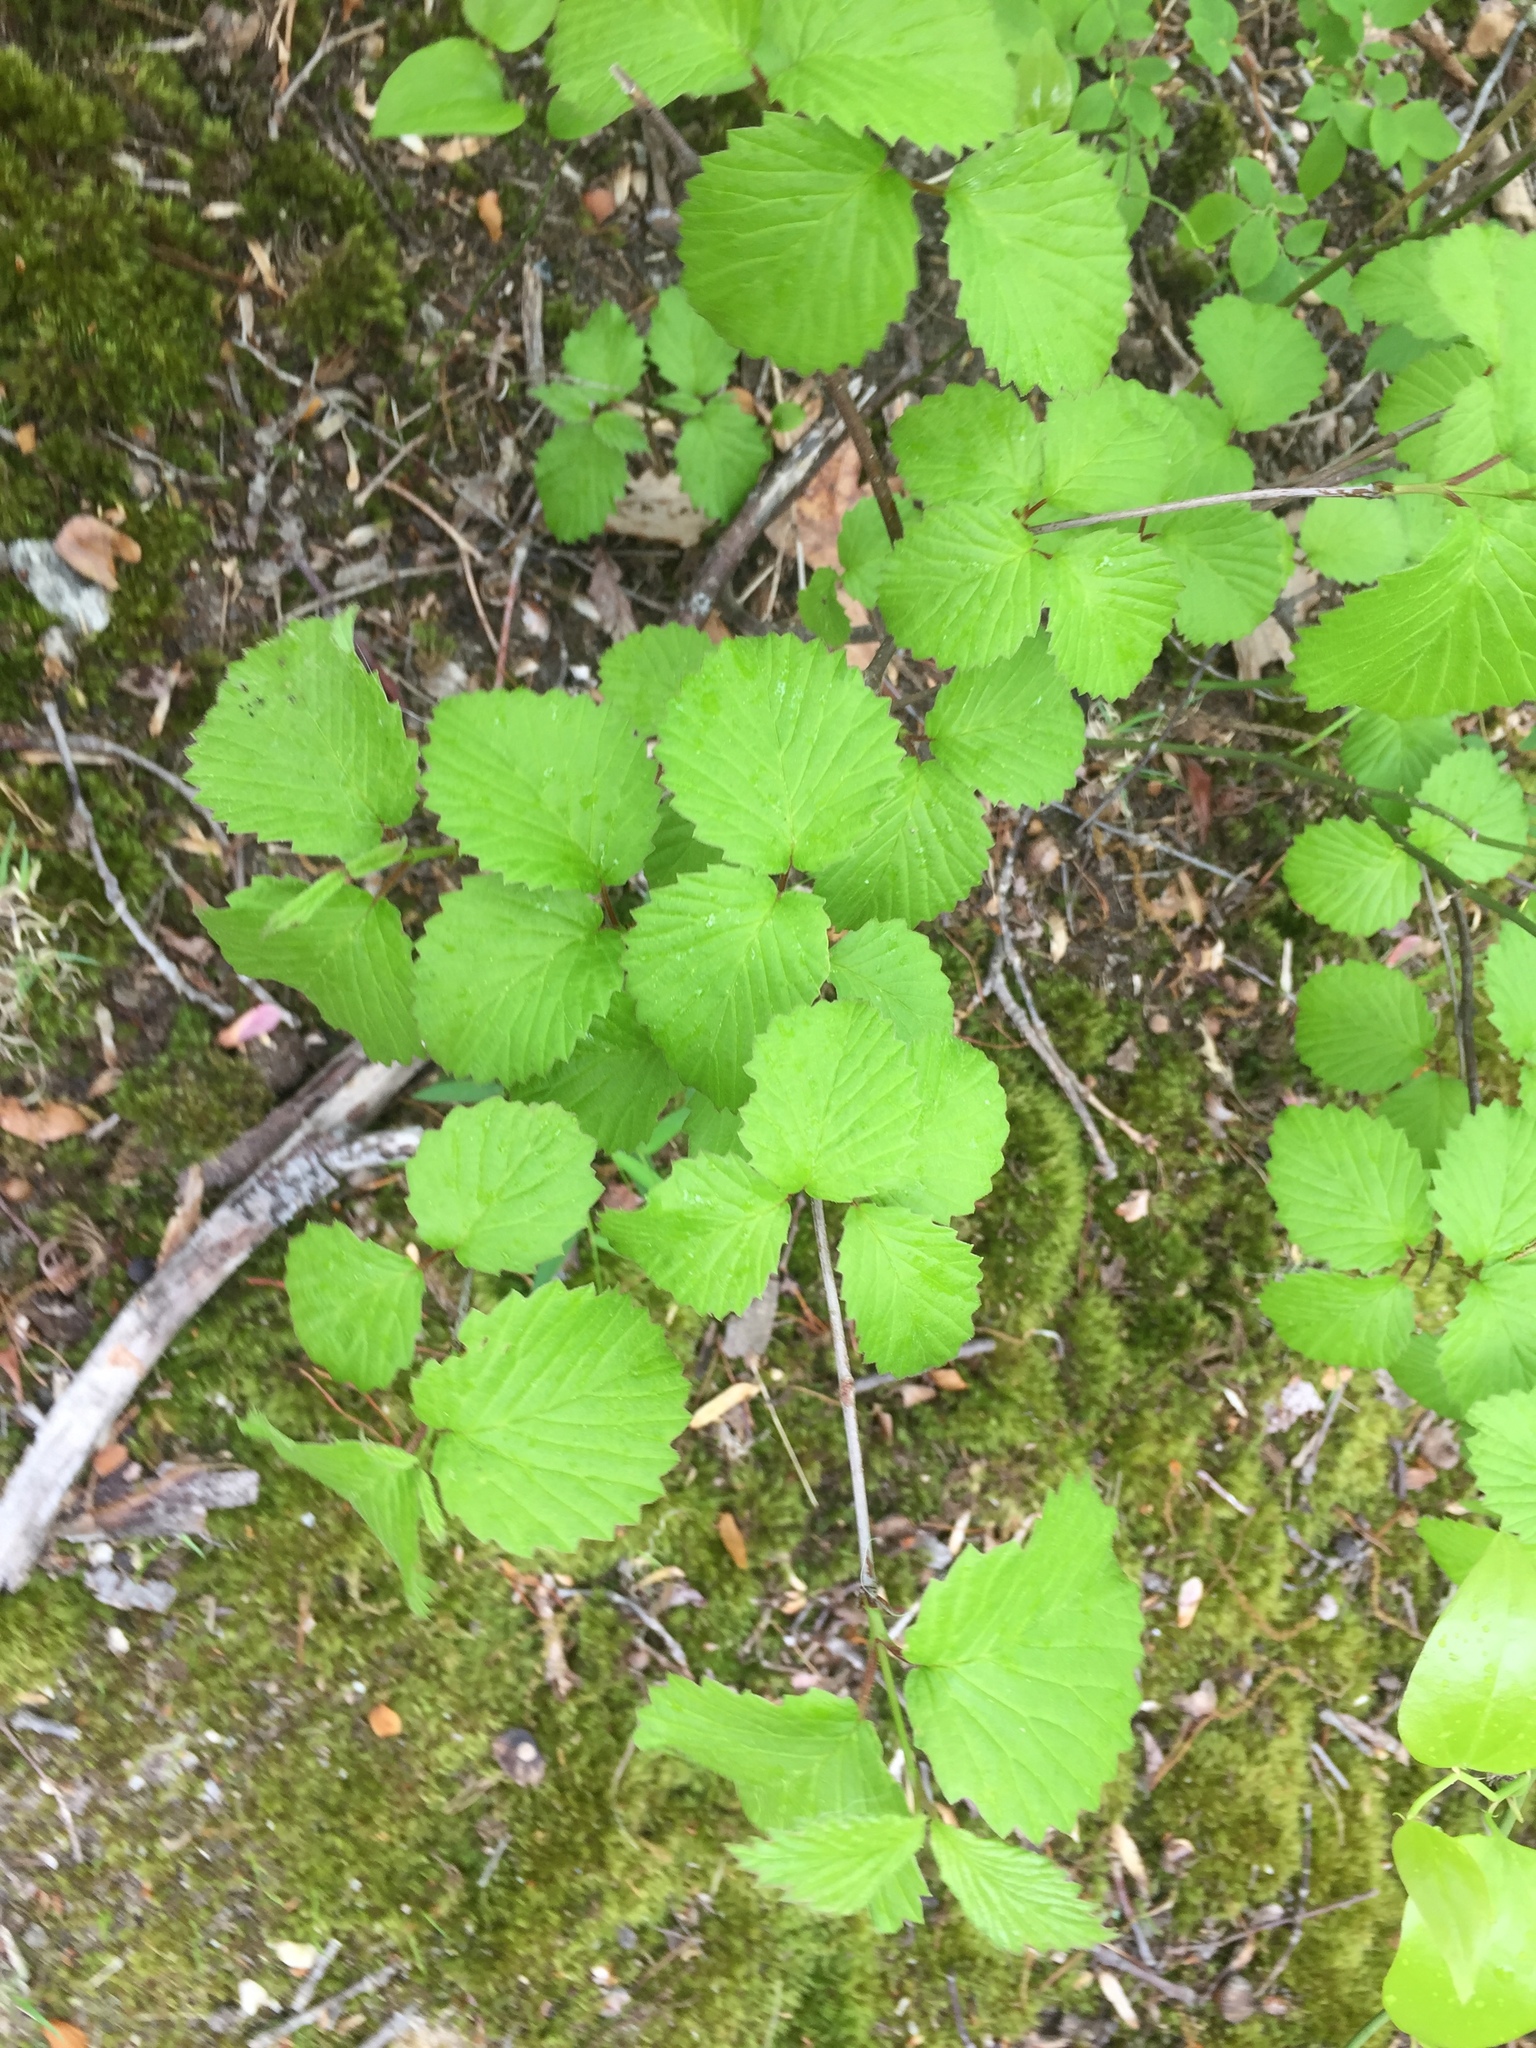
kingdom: Plantae
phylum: Tracheophyta
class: Magnoliopsida
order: Dipsacales
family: Viburnaceae
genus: Viburnum
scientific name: Viburnum dentatum
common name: Arrow-wood
